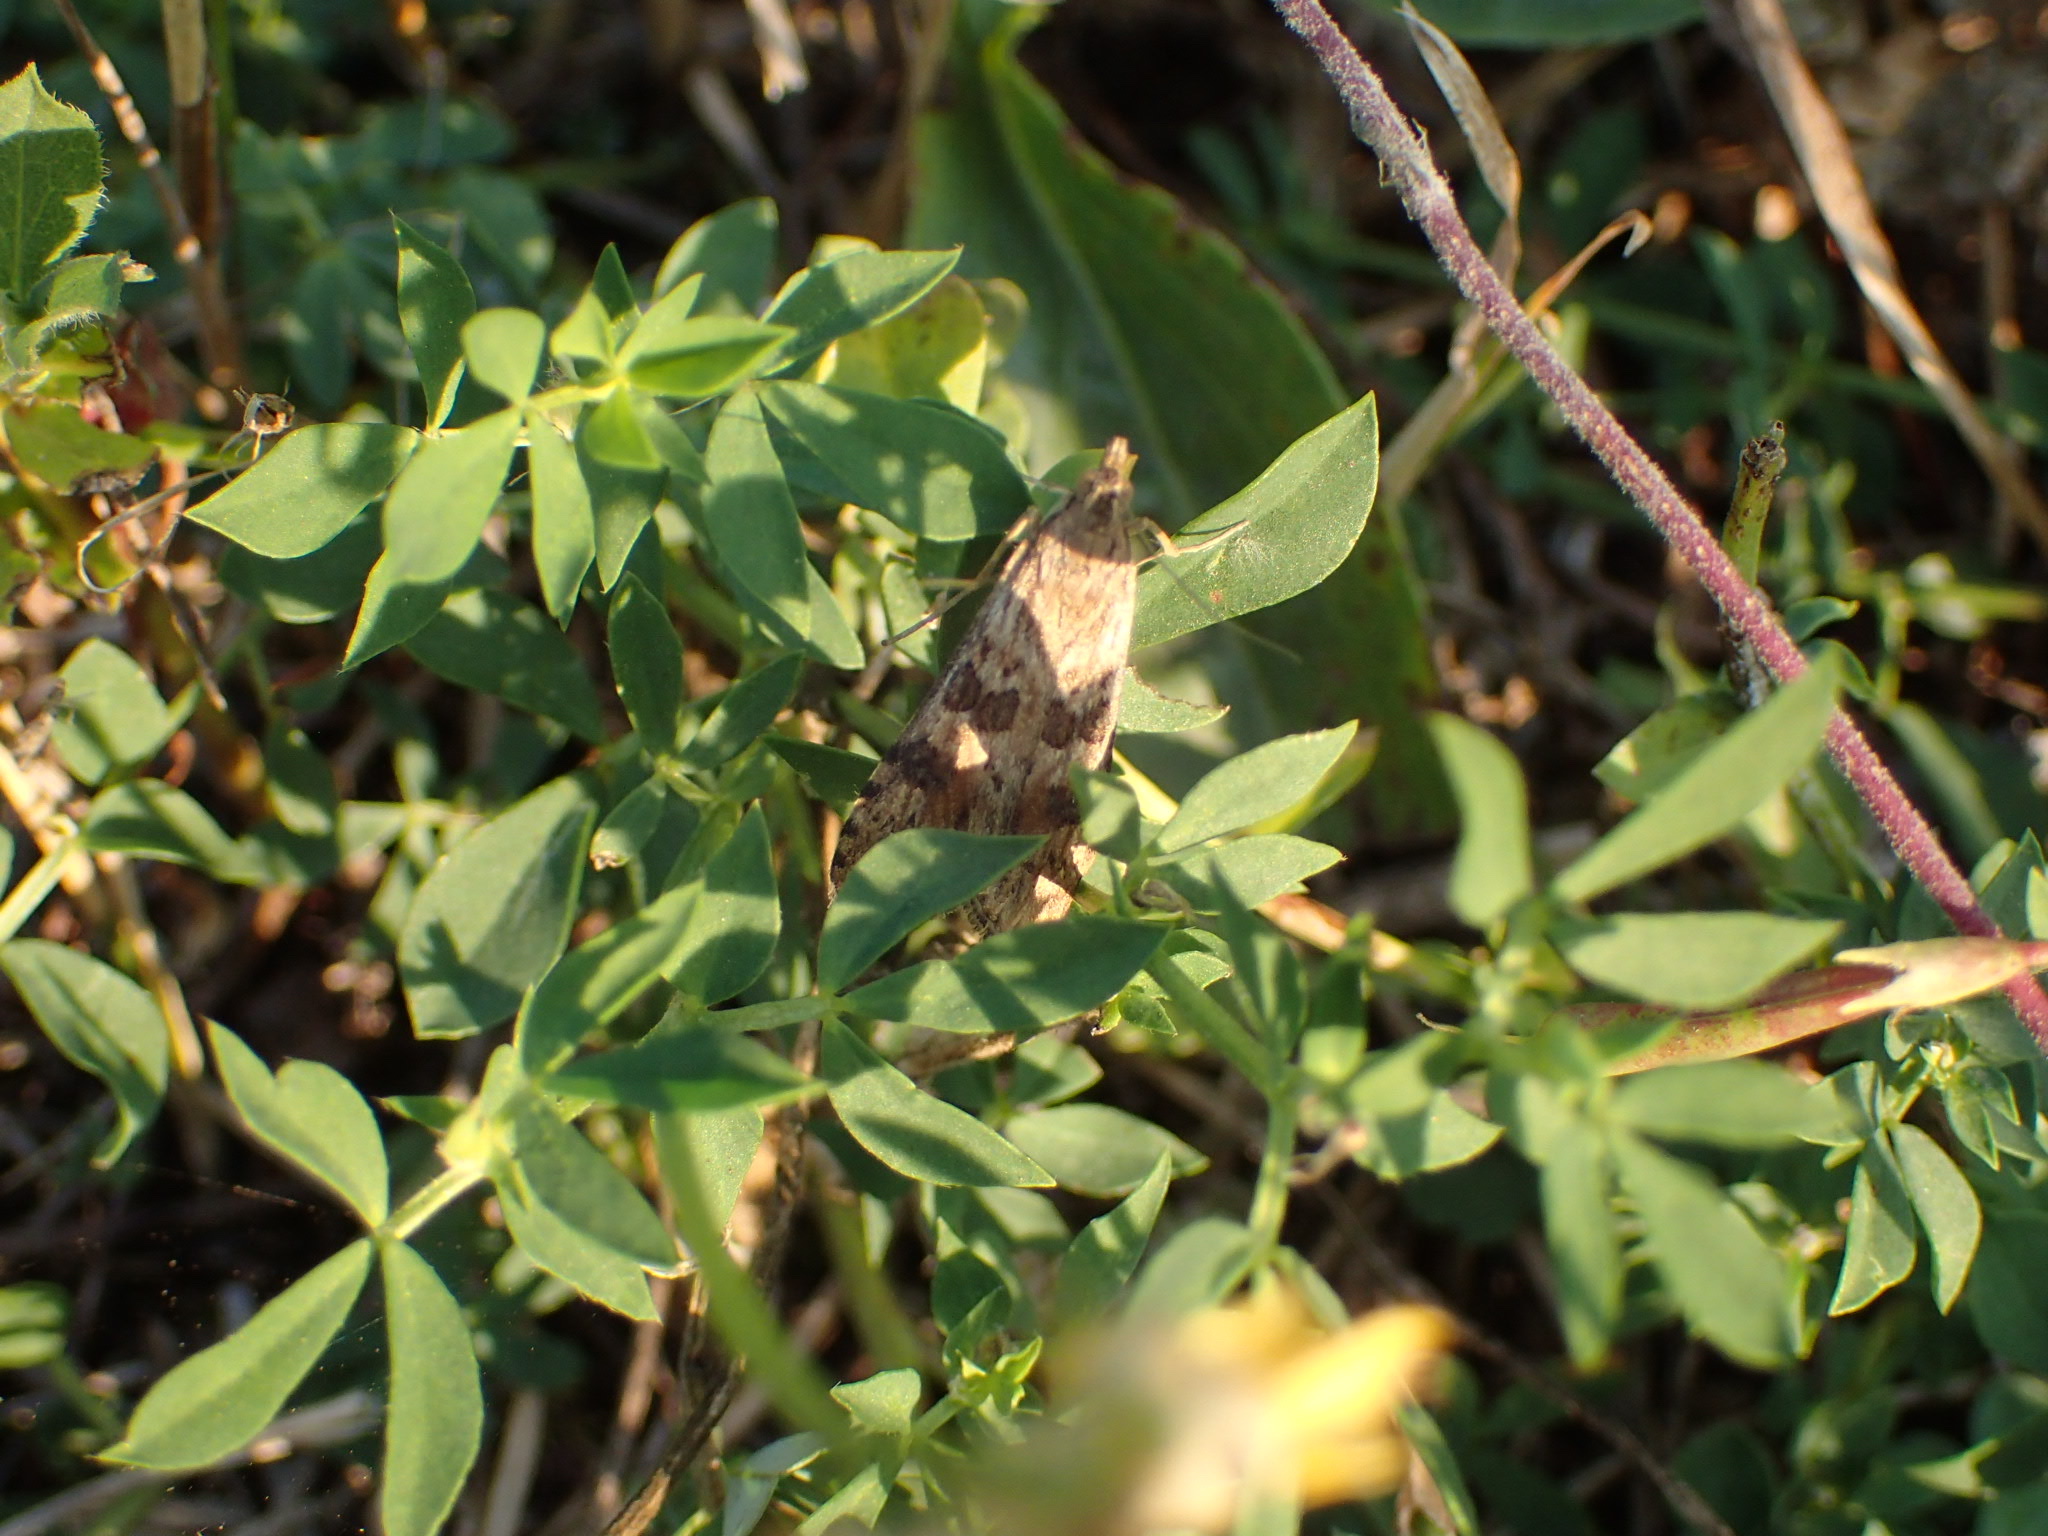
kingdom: Animalia
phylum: Arthropoda
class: Insecta
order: Lepidoptera
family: Crambidae
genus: Nomophila
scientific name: Nomophila nearctica
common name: American rush veneer
